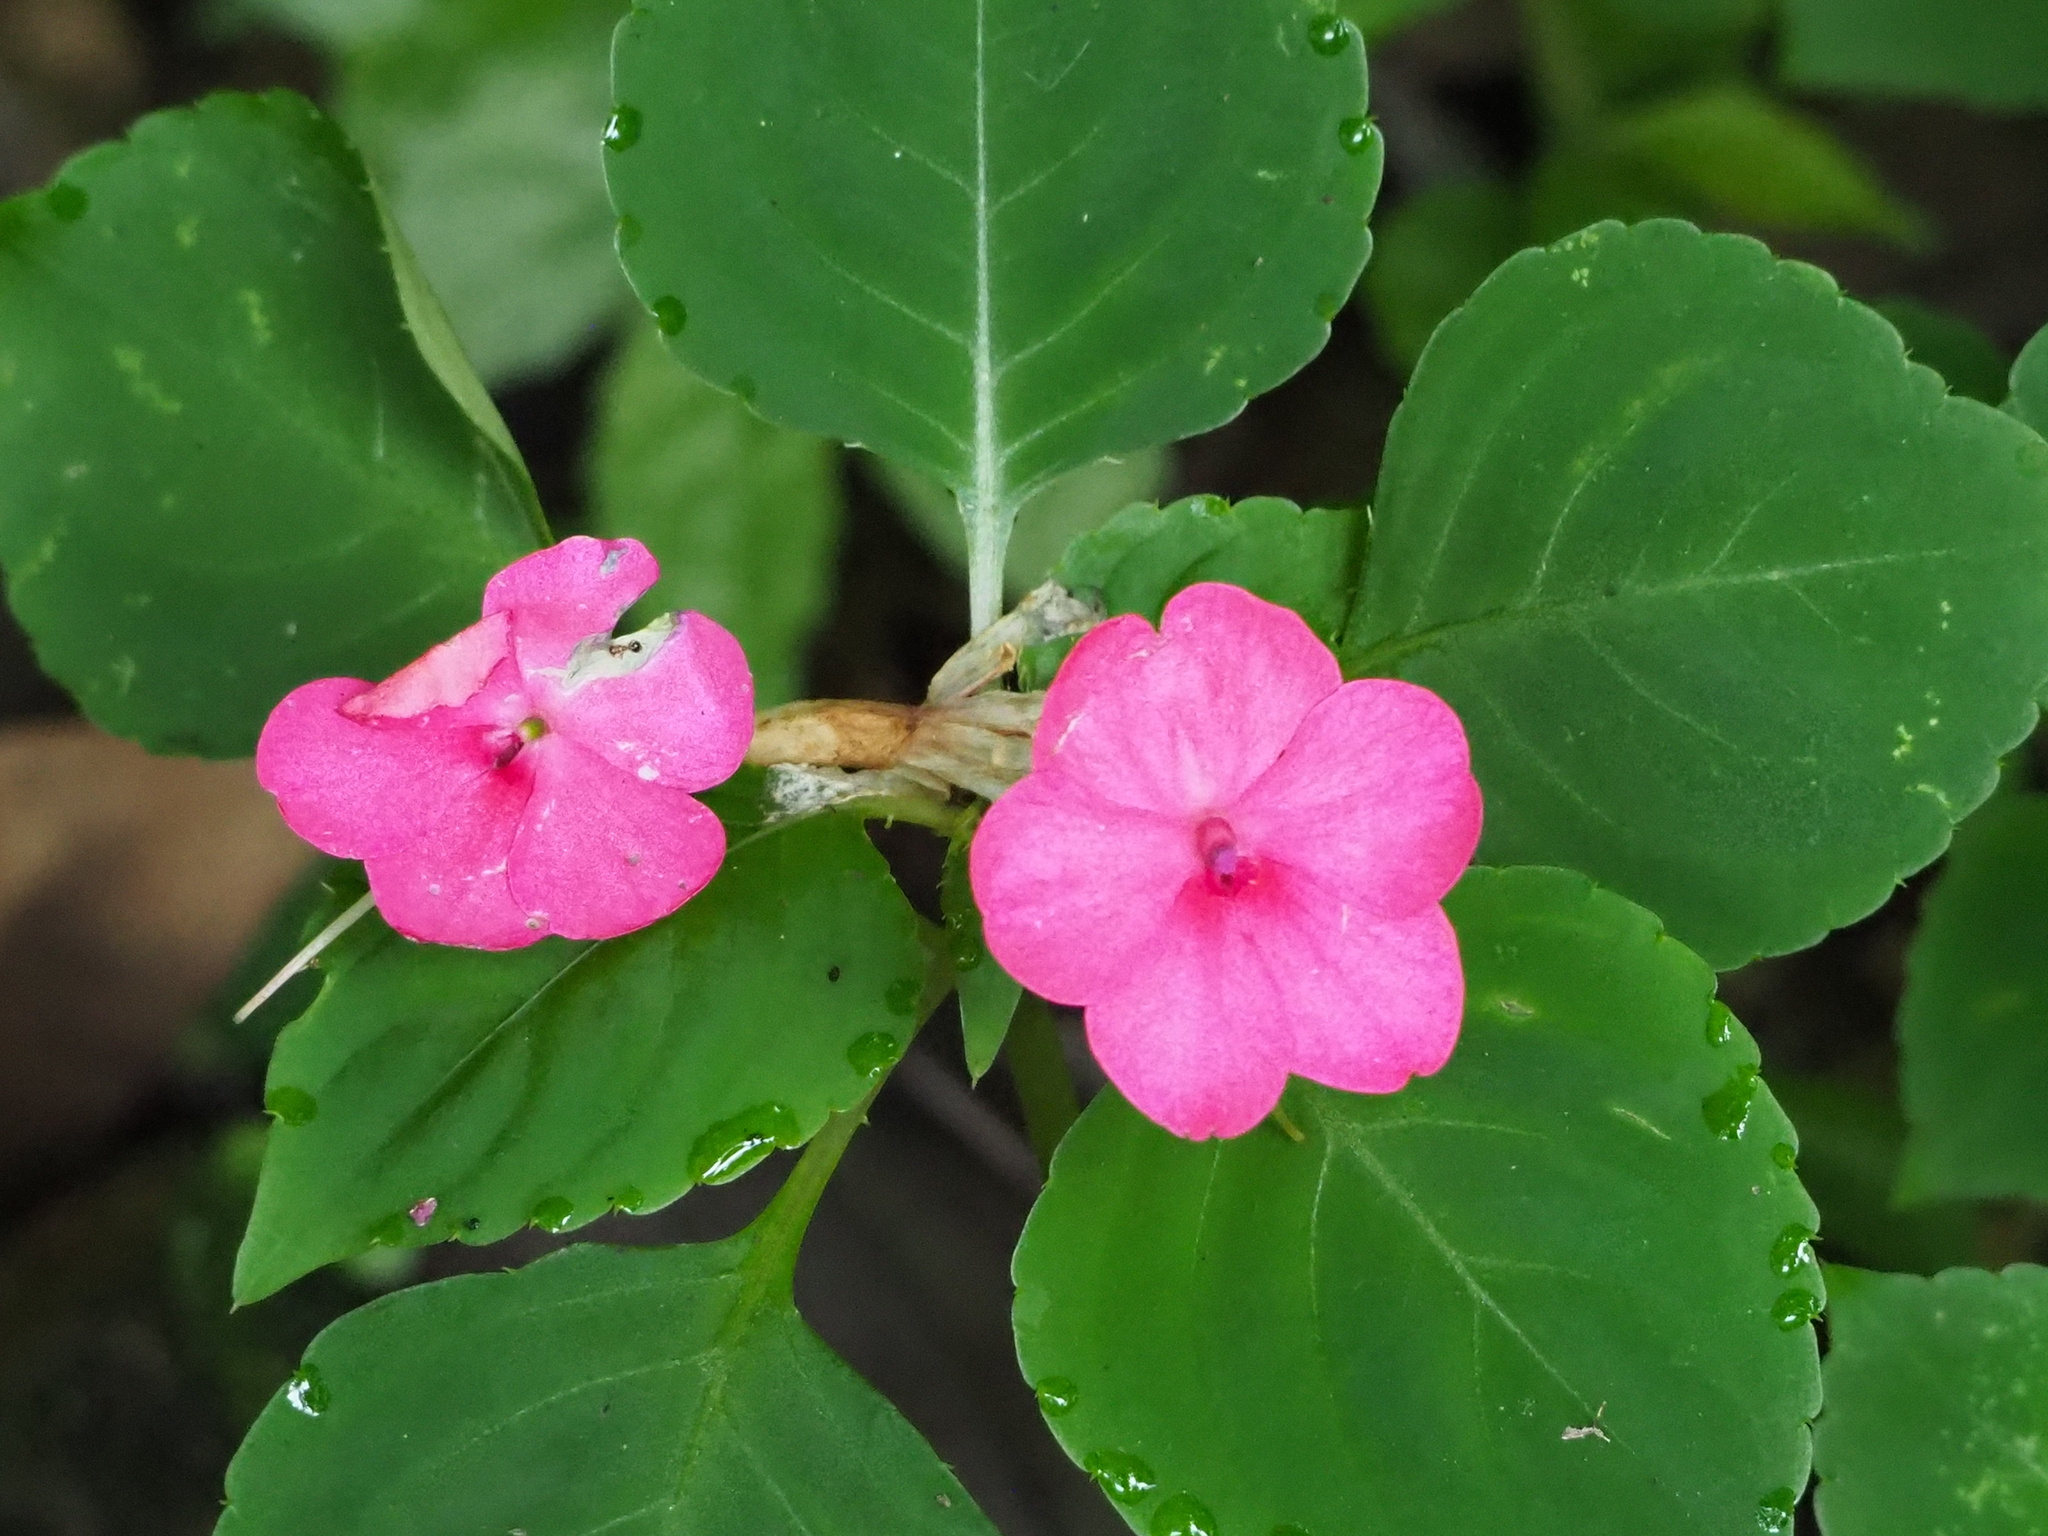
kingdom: Plantae
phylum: Tracheophyta
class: Magnoliopsida
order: Ericales
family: Balsaminaceae
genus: Impatiens
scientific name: Impatiens walleriana
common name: Buzzy lizzy
